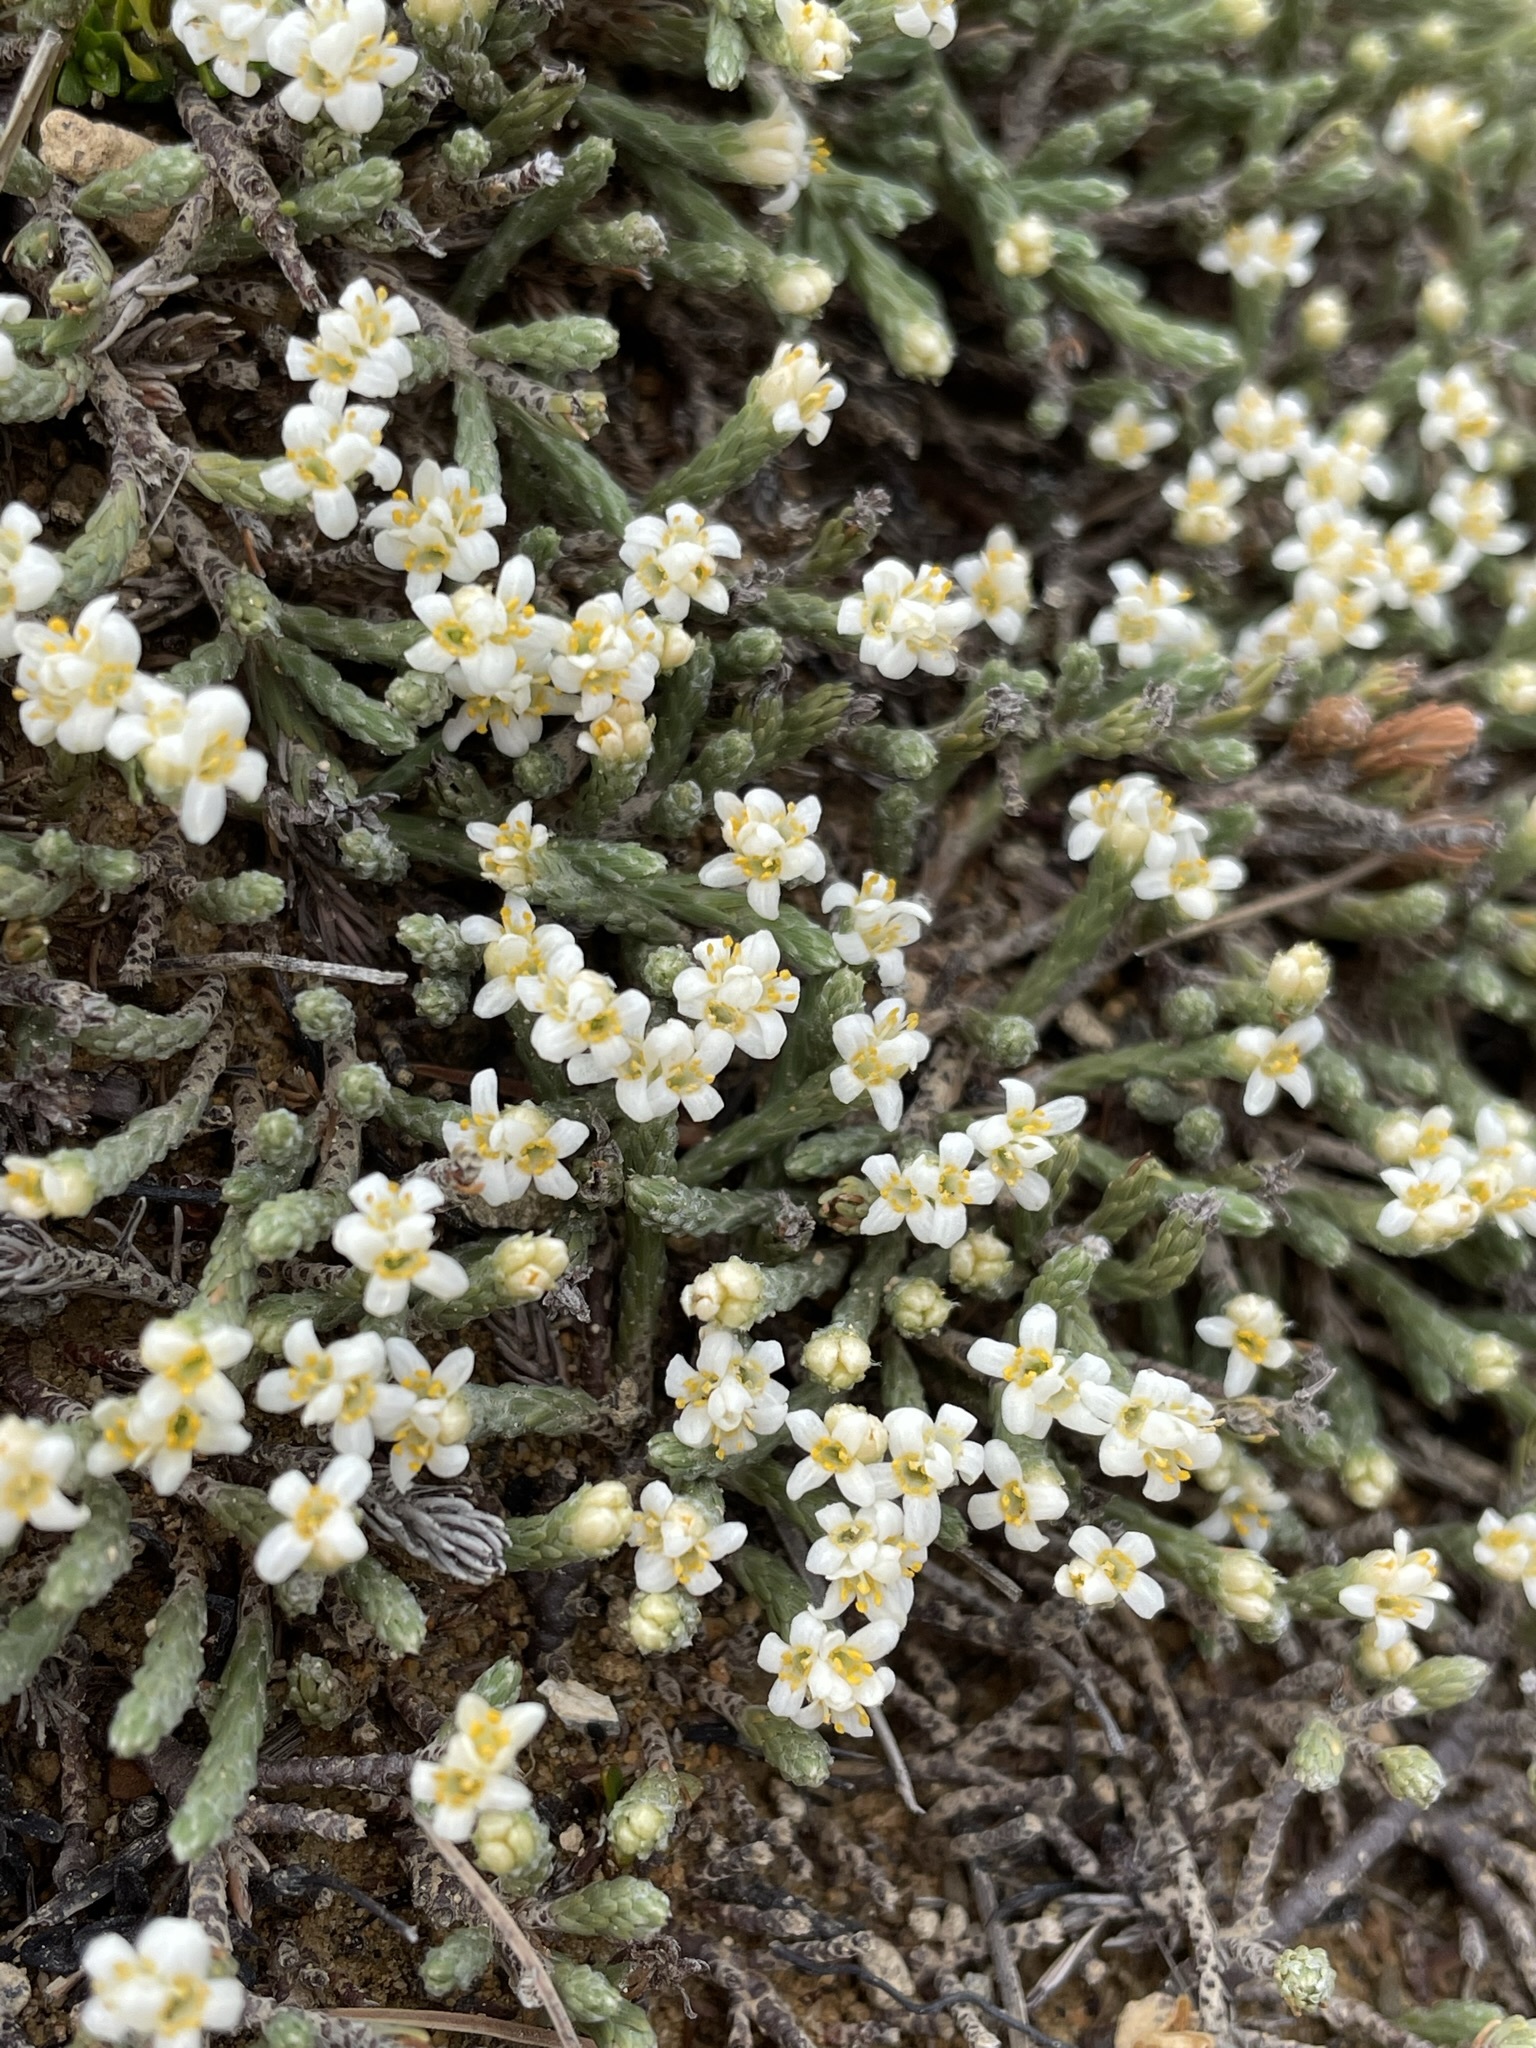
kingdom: Plantae
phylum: Tracheophyta
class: Magnoliopsida
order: Malvales
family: Thymelaeaceae
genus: Kelleria
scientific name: Kelleria dieffenbachii
